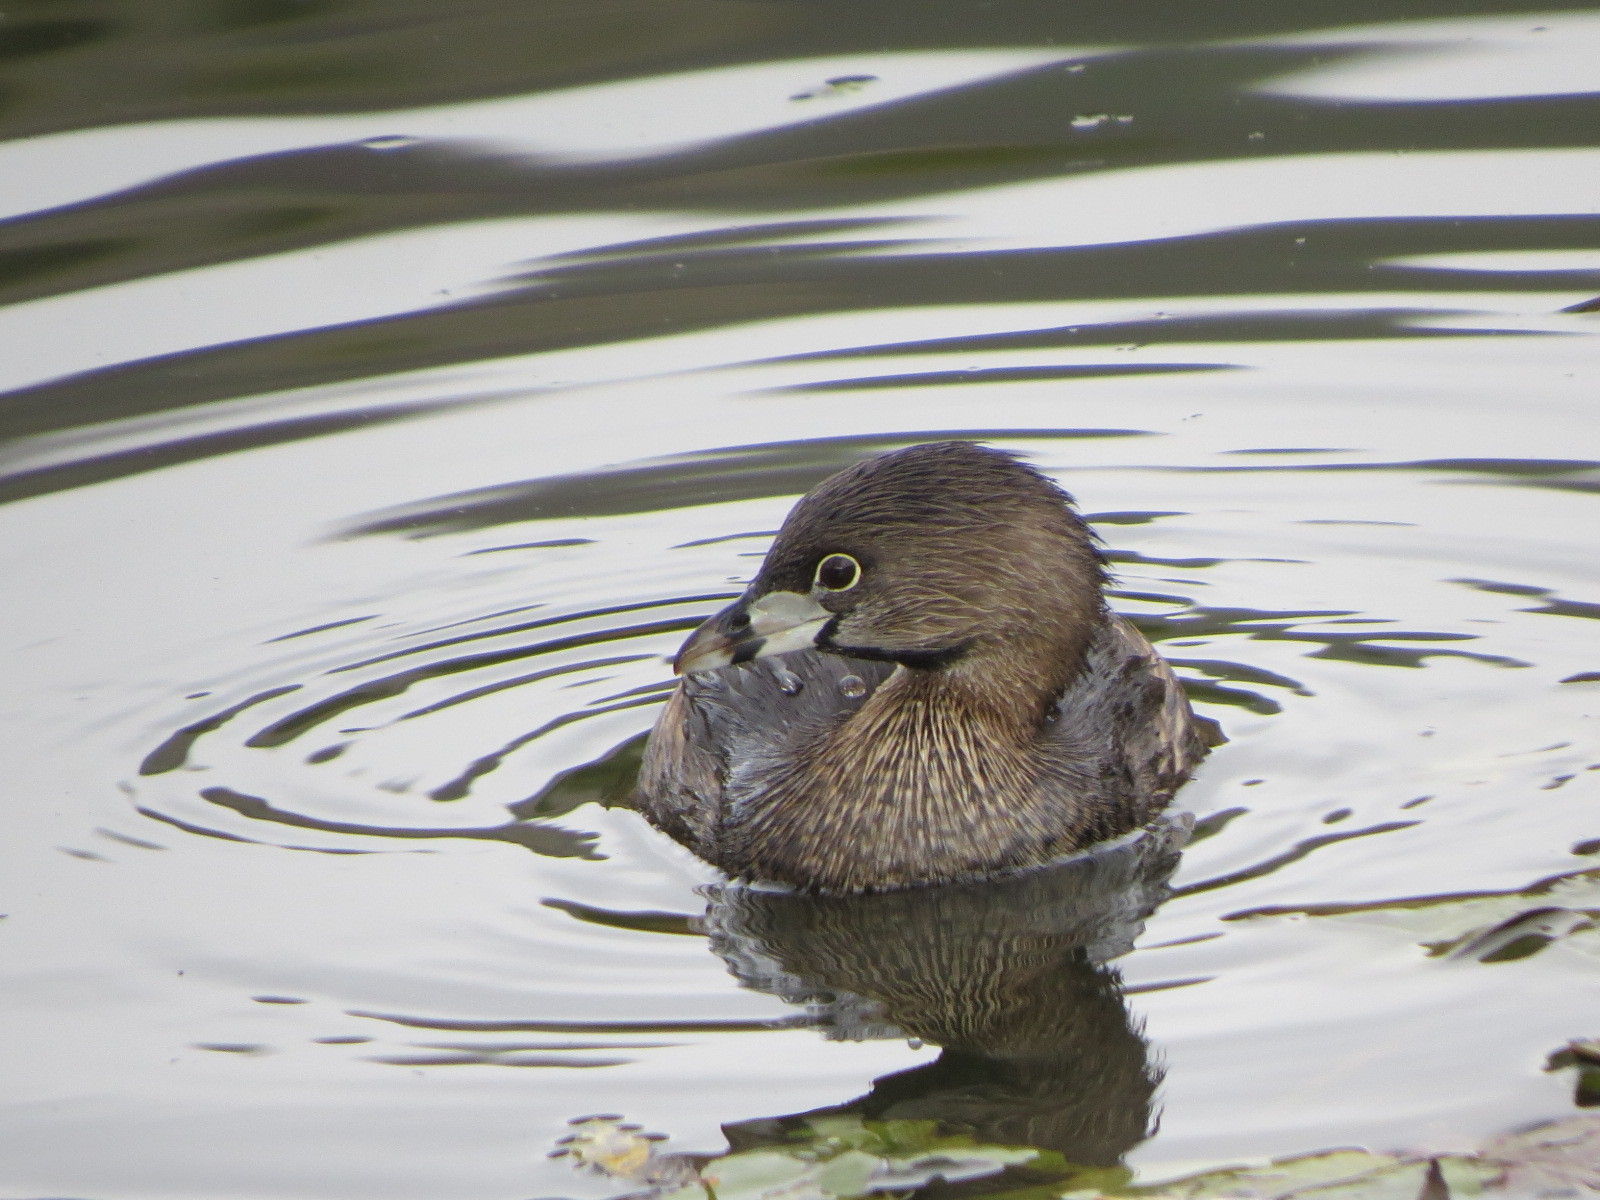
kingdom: Animalia
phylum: Chordata
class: Aves
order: Podicipediformes
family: Podicipedidae
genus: Podilymbus
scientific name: Podilymbus podiceps
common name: Pied-billed grebe
